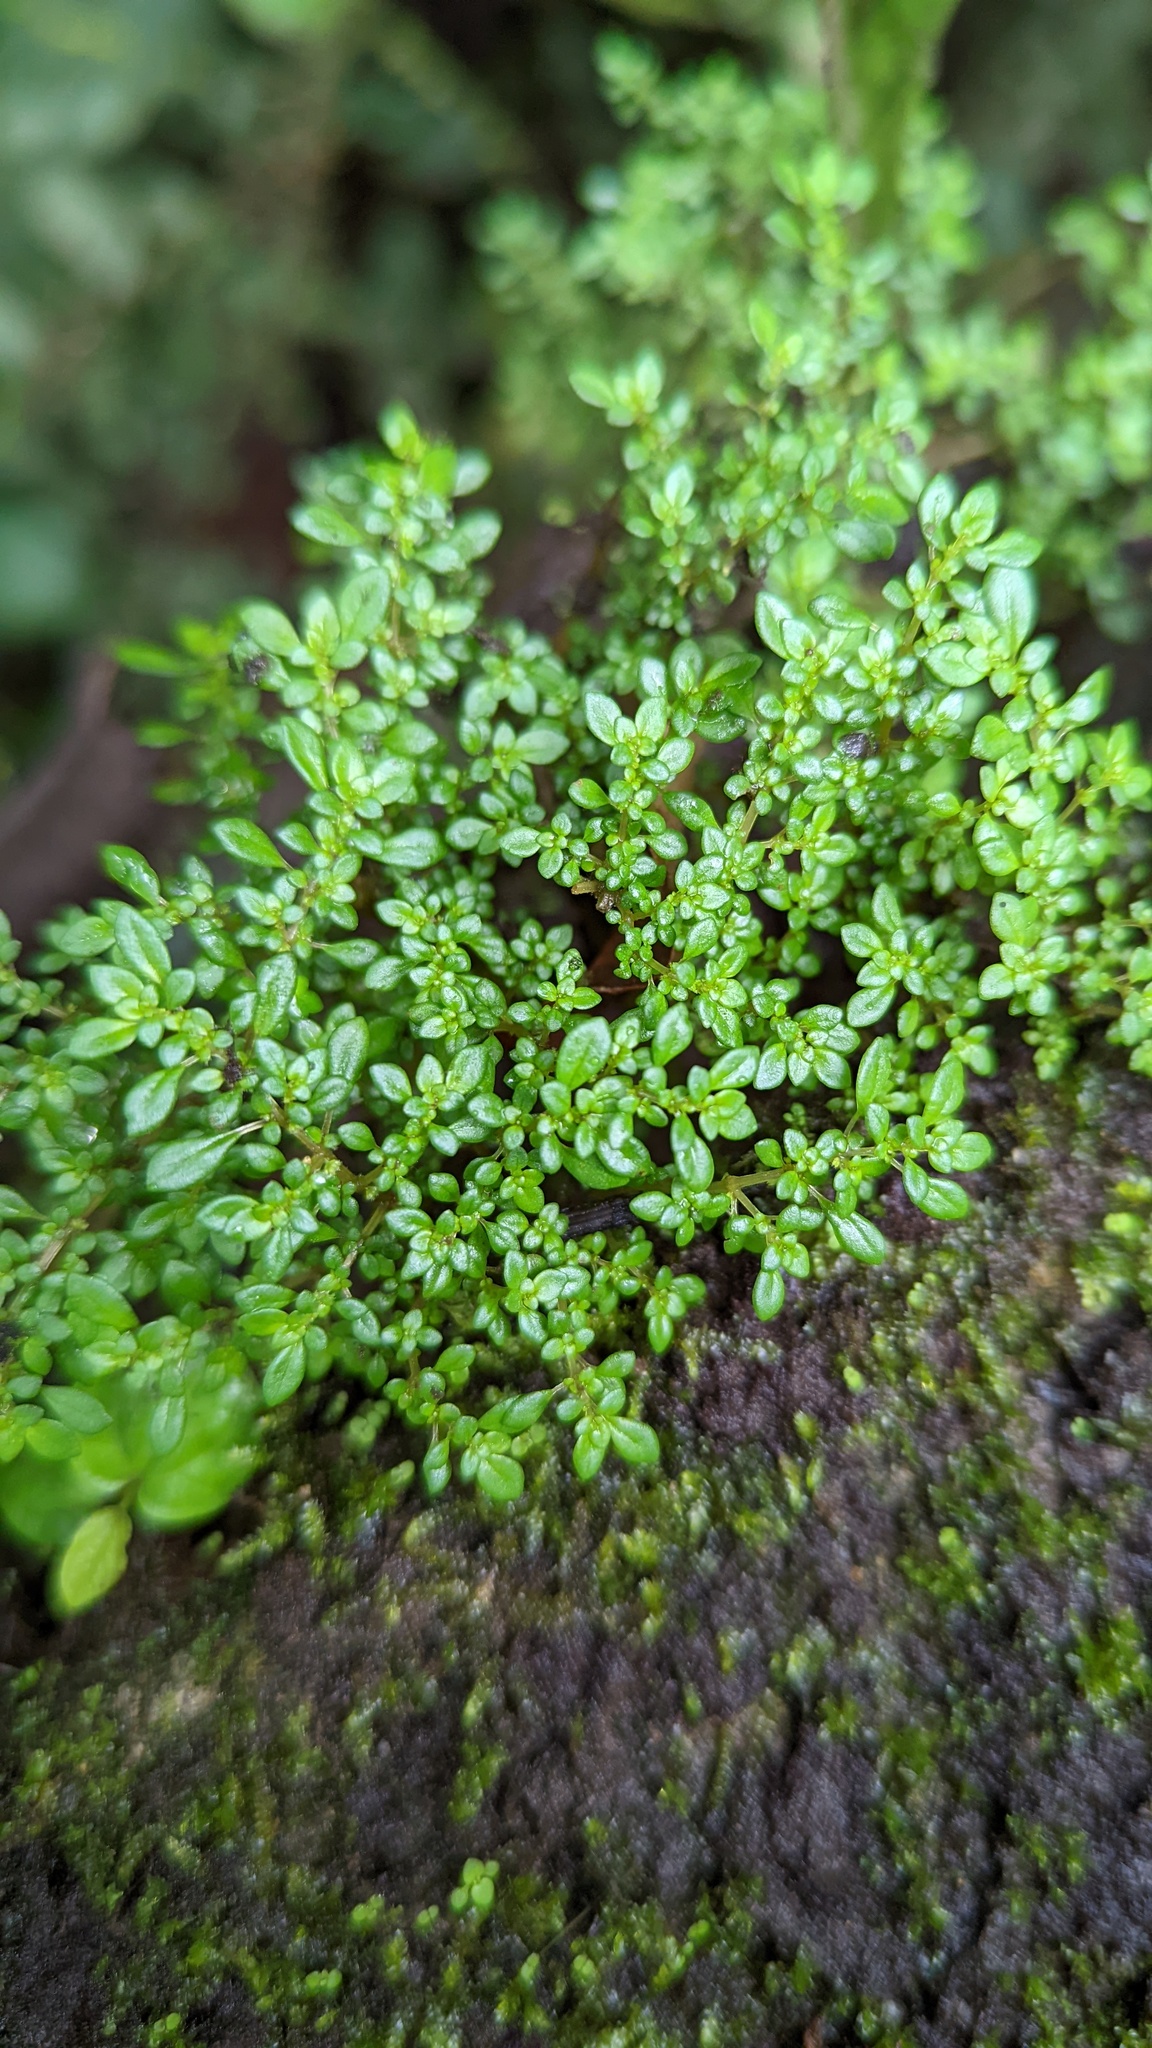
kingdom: Plantae
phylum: Tracheophyta
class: Magnoliopsida
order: Rosales
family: Urticaceae
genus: Pilea
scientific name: Pilea microphylla
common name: Artillery-plant
